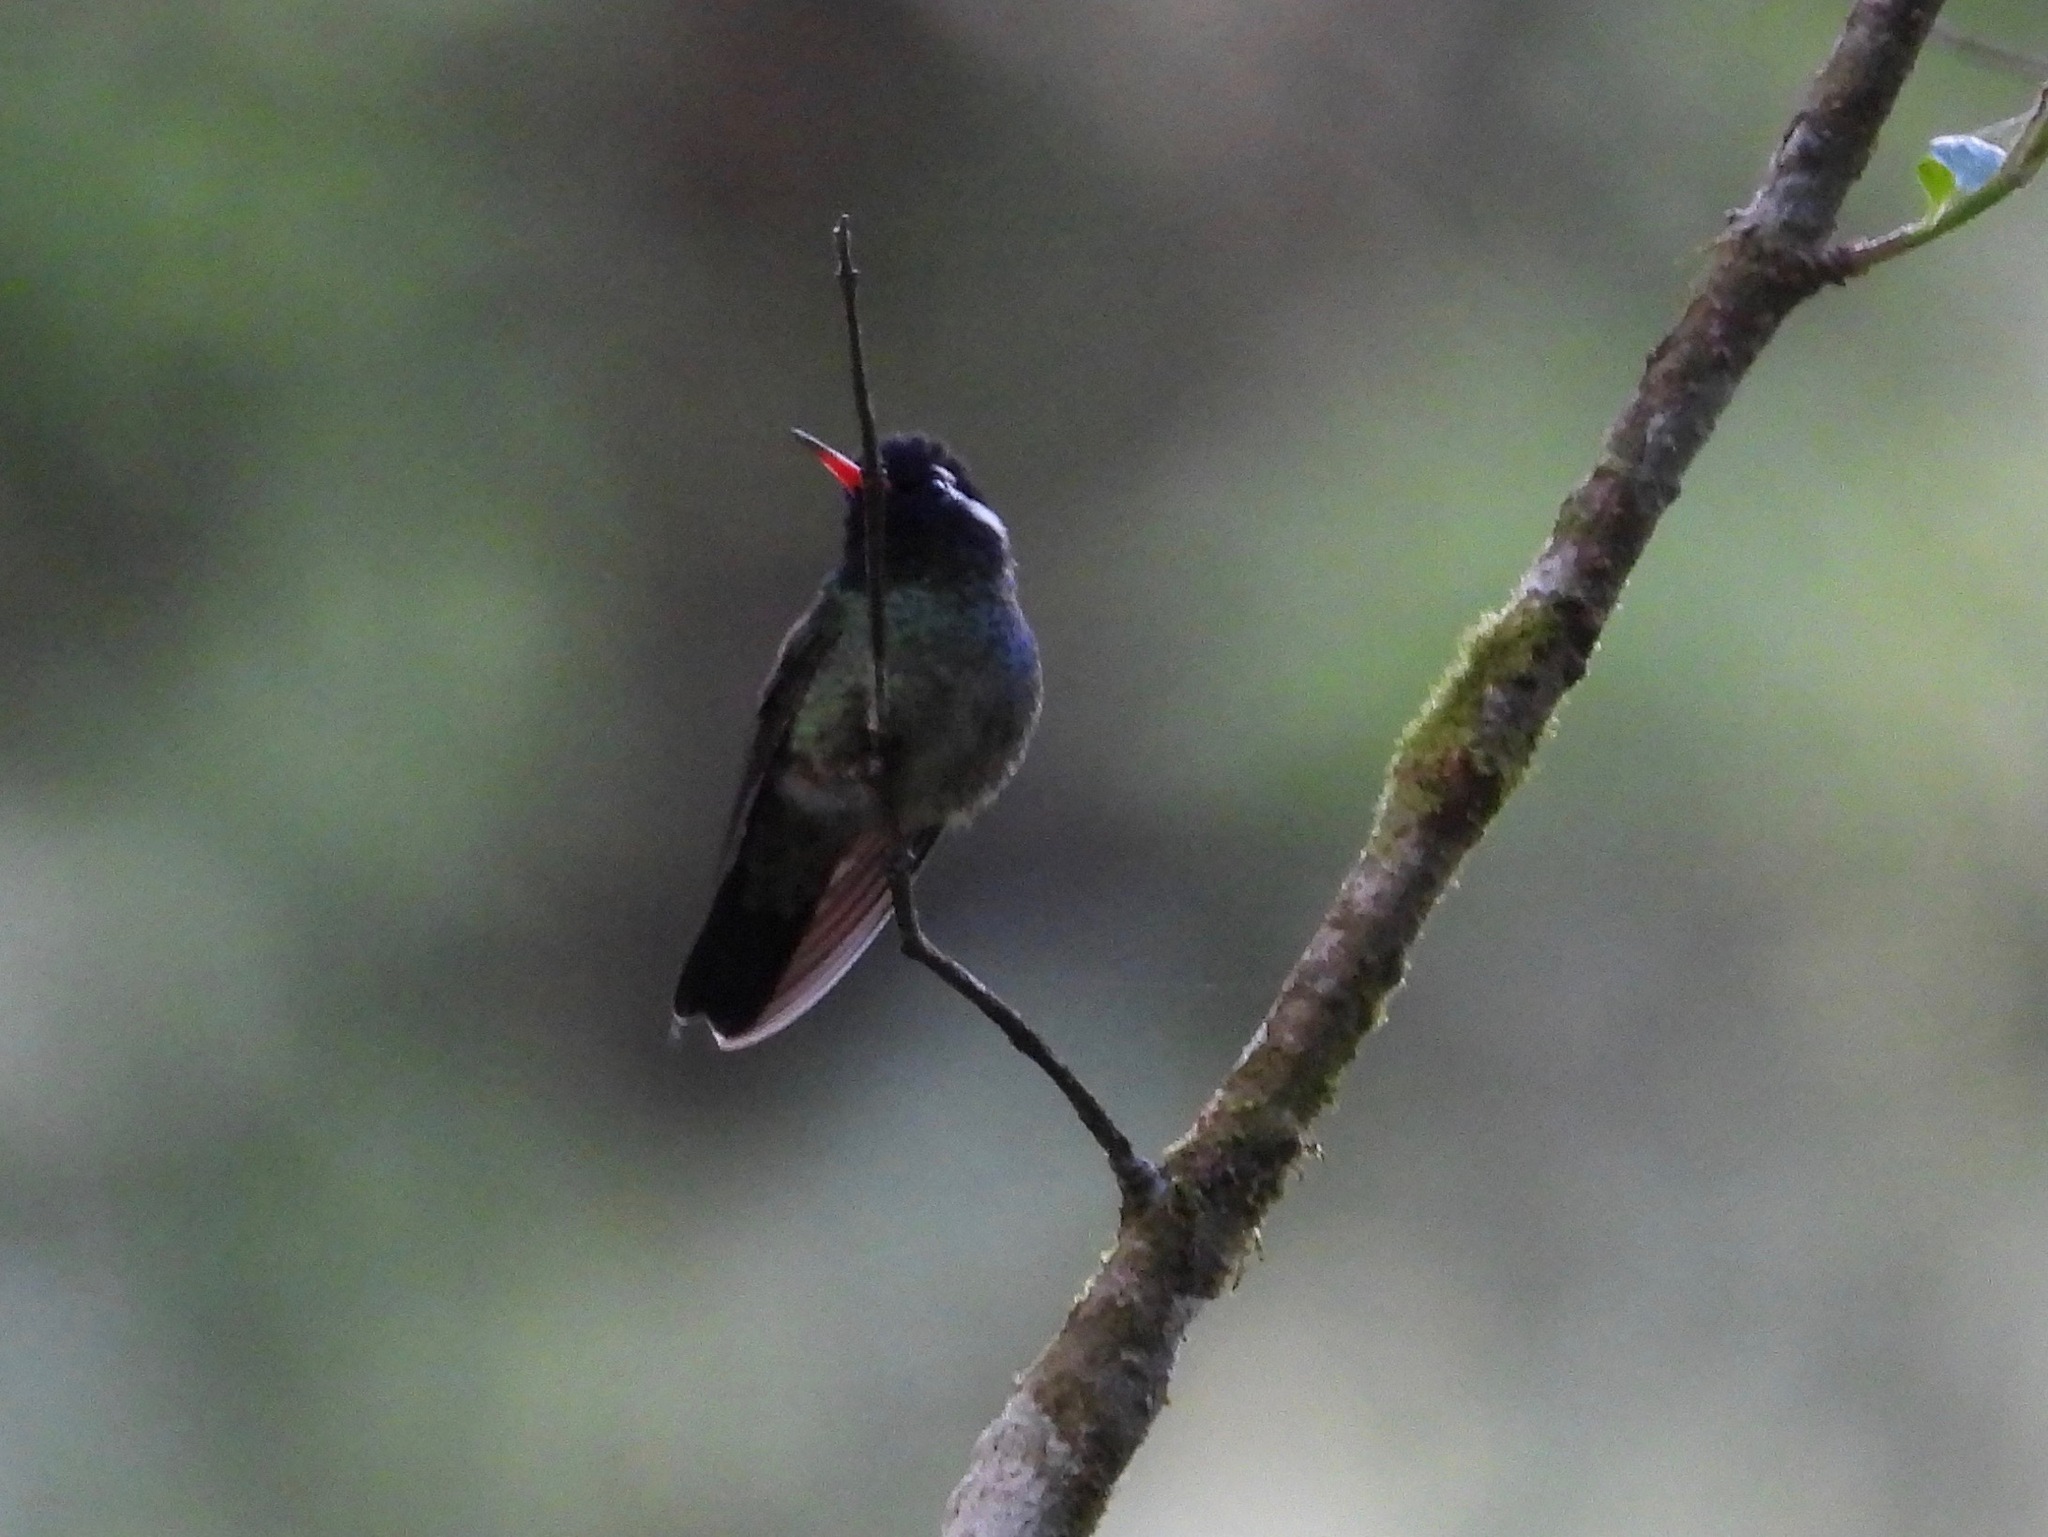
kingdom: Animalia
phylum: Chordata
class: Aves
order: Apodiformes
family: Trochilidae
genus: Basilinna
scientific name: Basilinna leucotis
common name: White-eared hummingbird
